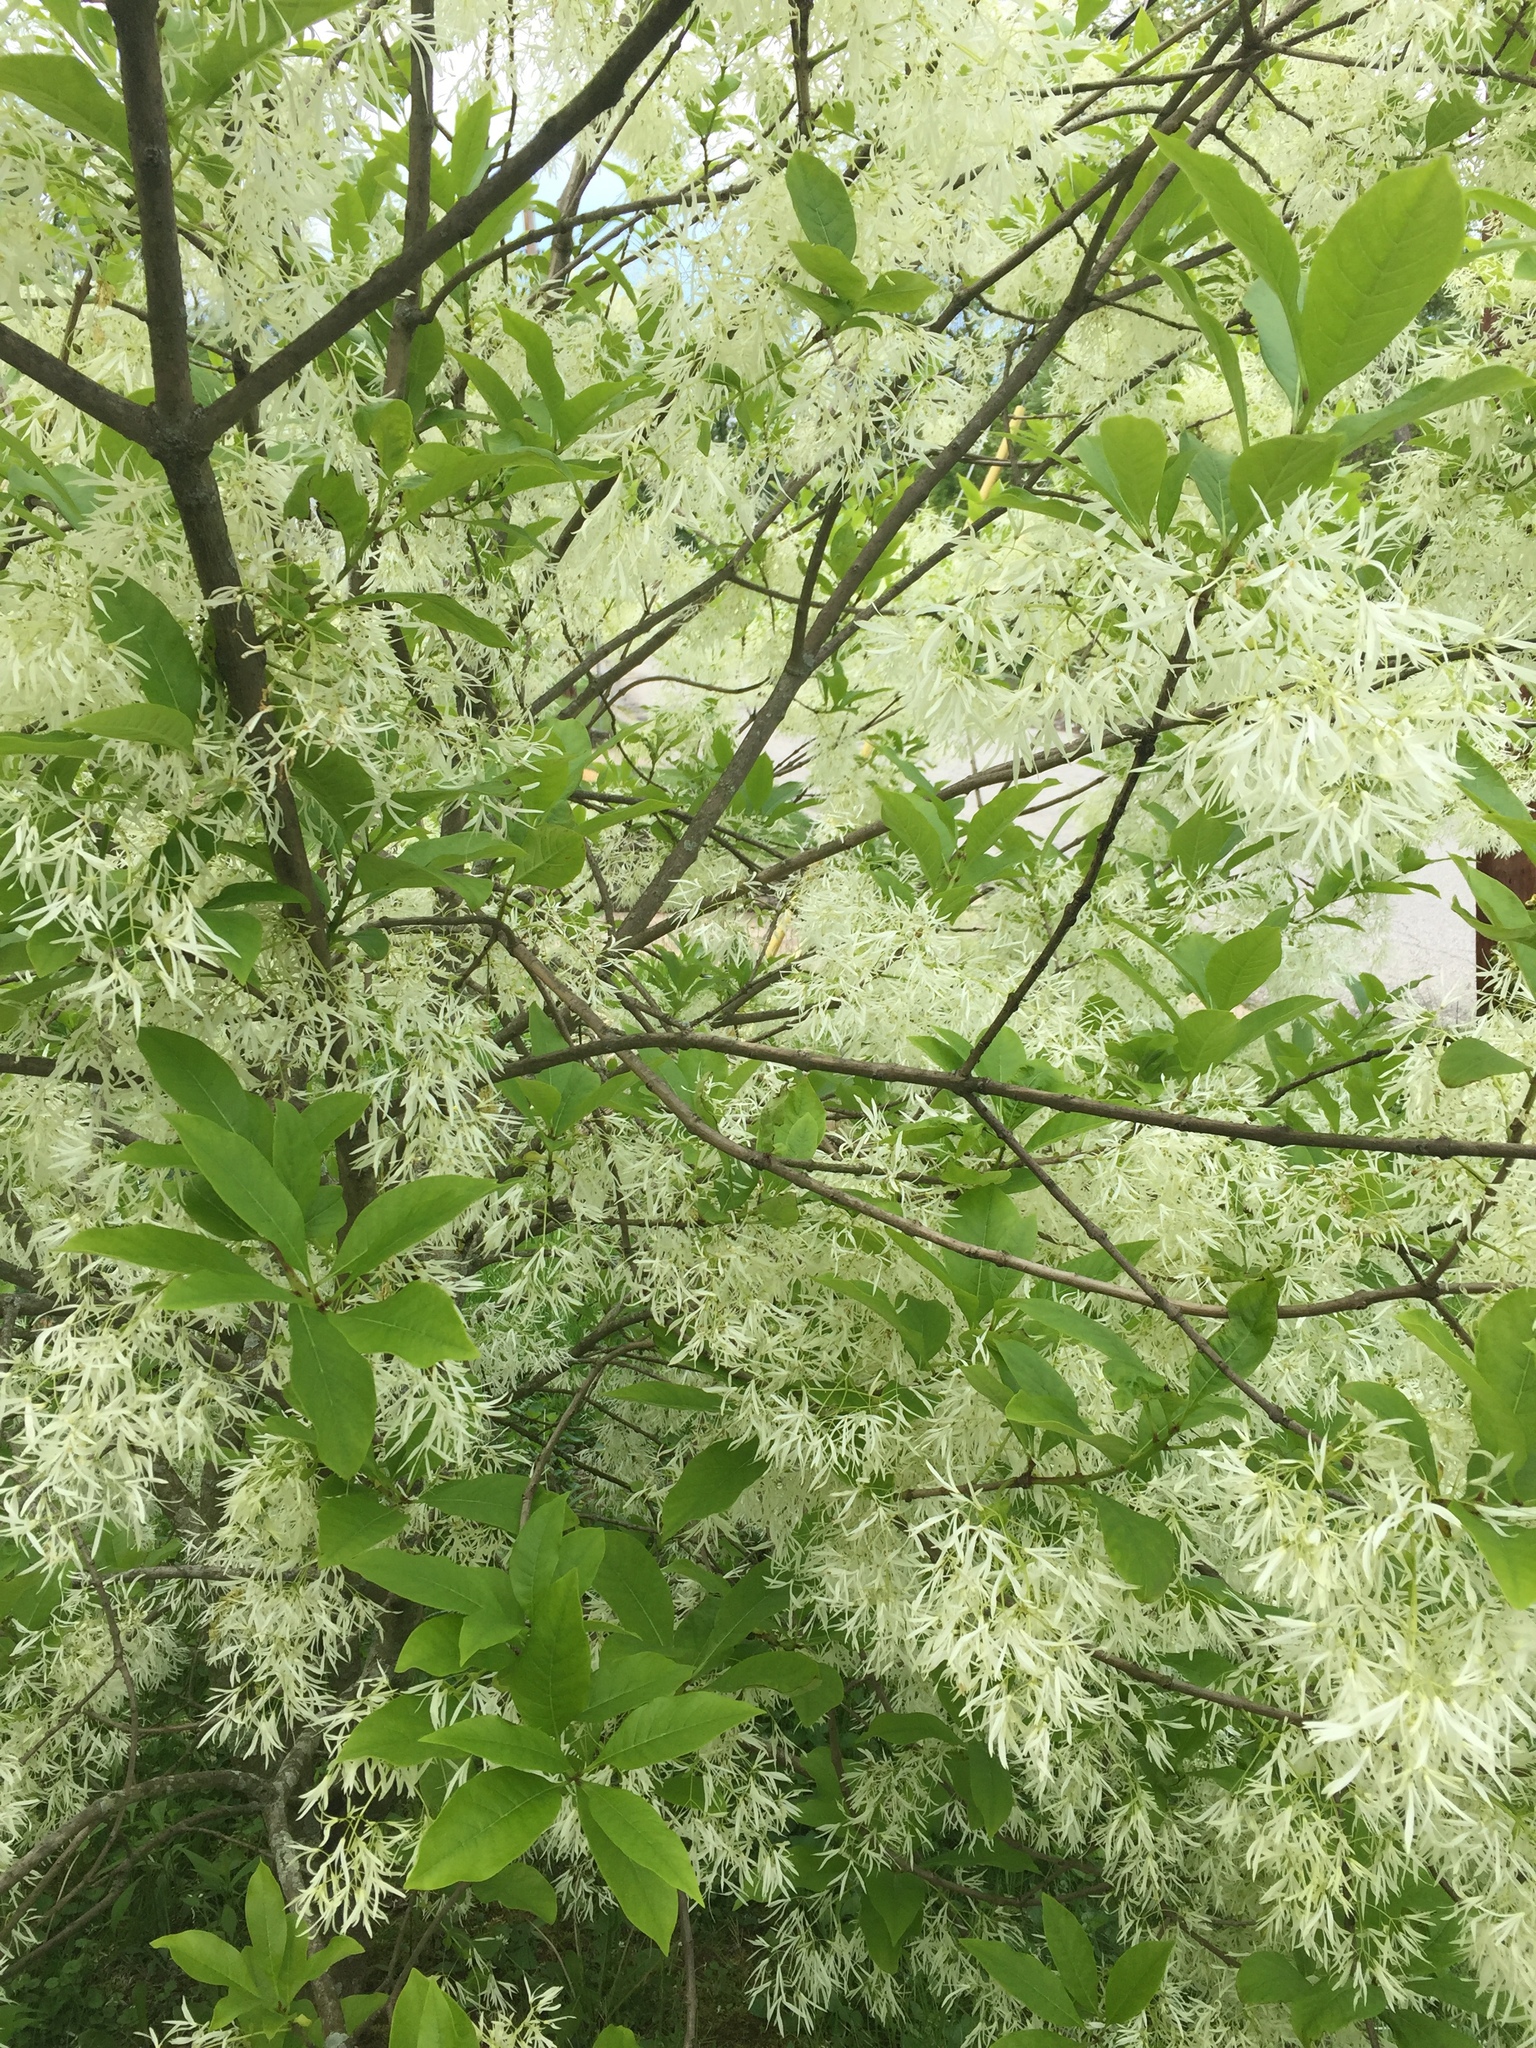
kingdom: Plantae
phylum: Tracheophyta
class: Magnoliopsida
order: Lamiales
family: Oleaceae
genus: Chionanthus
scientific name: Chionanthus virginicus
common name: American fringetree
